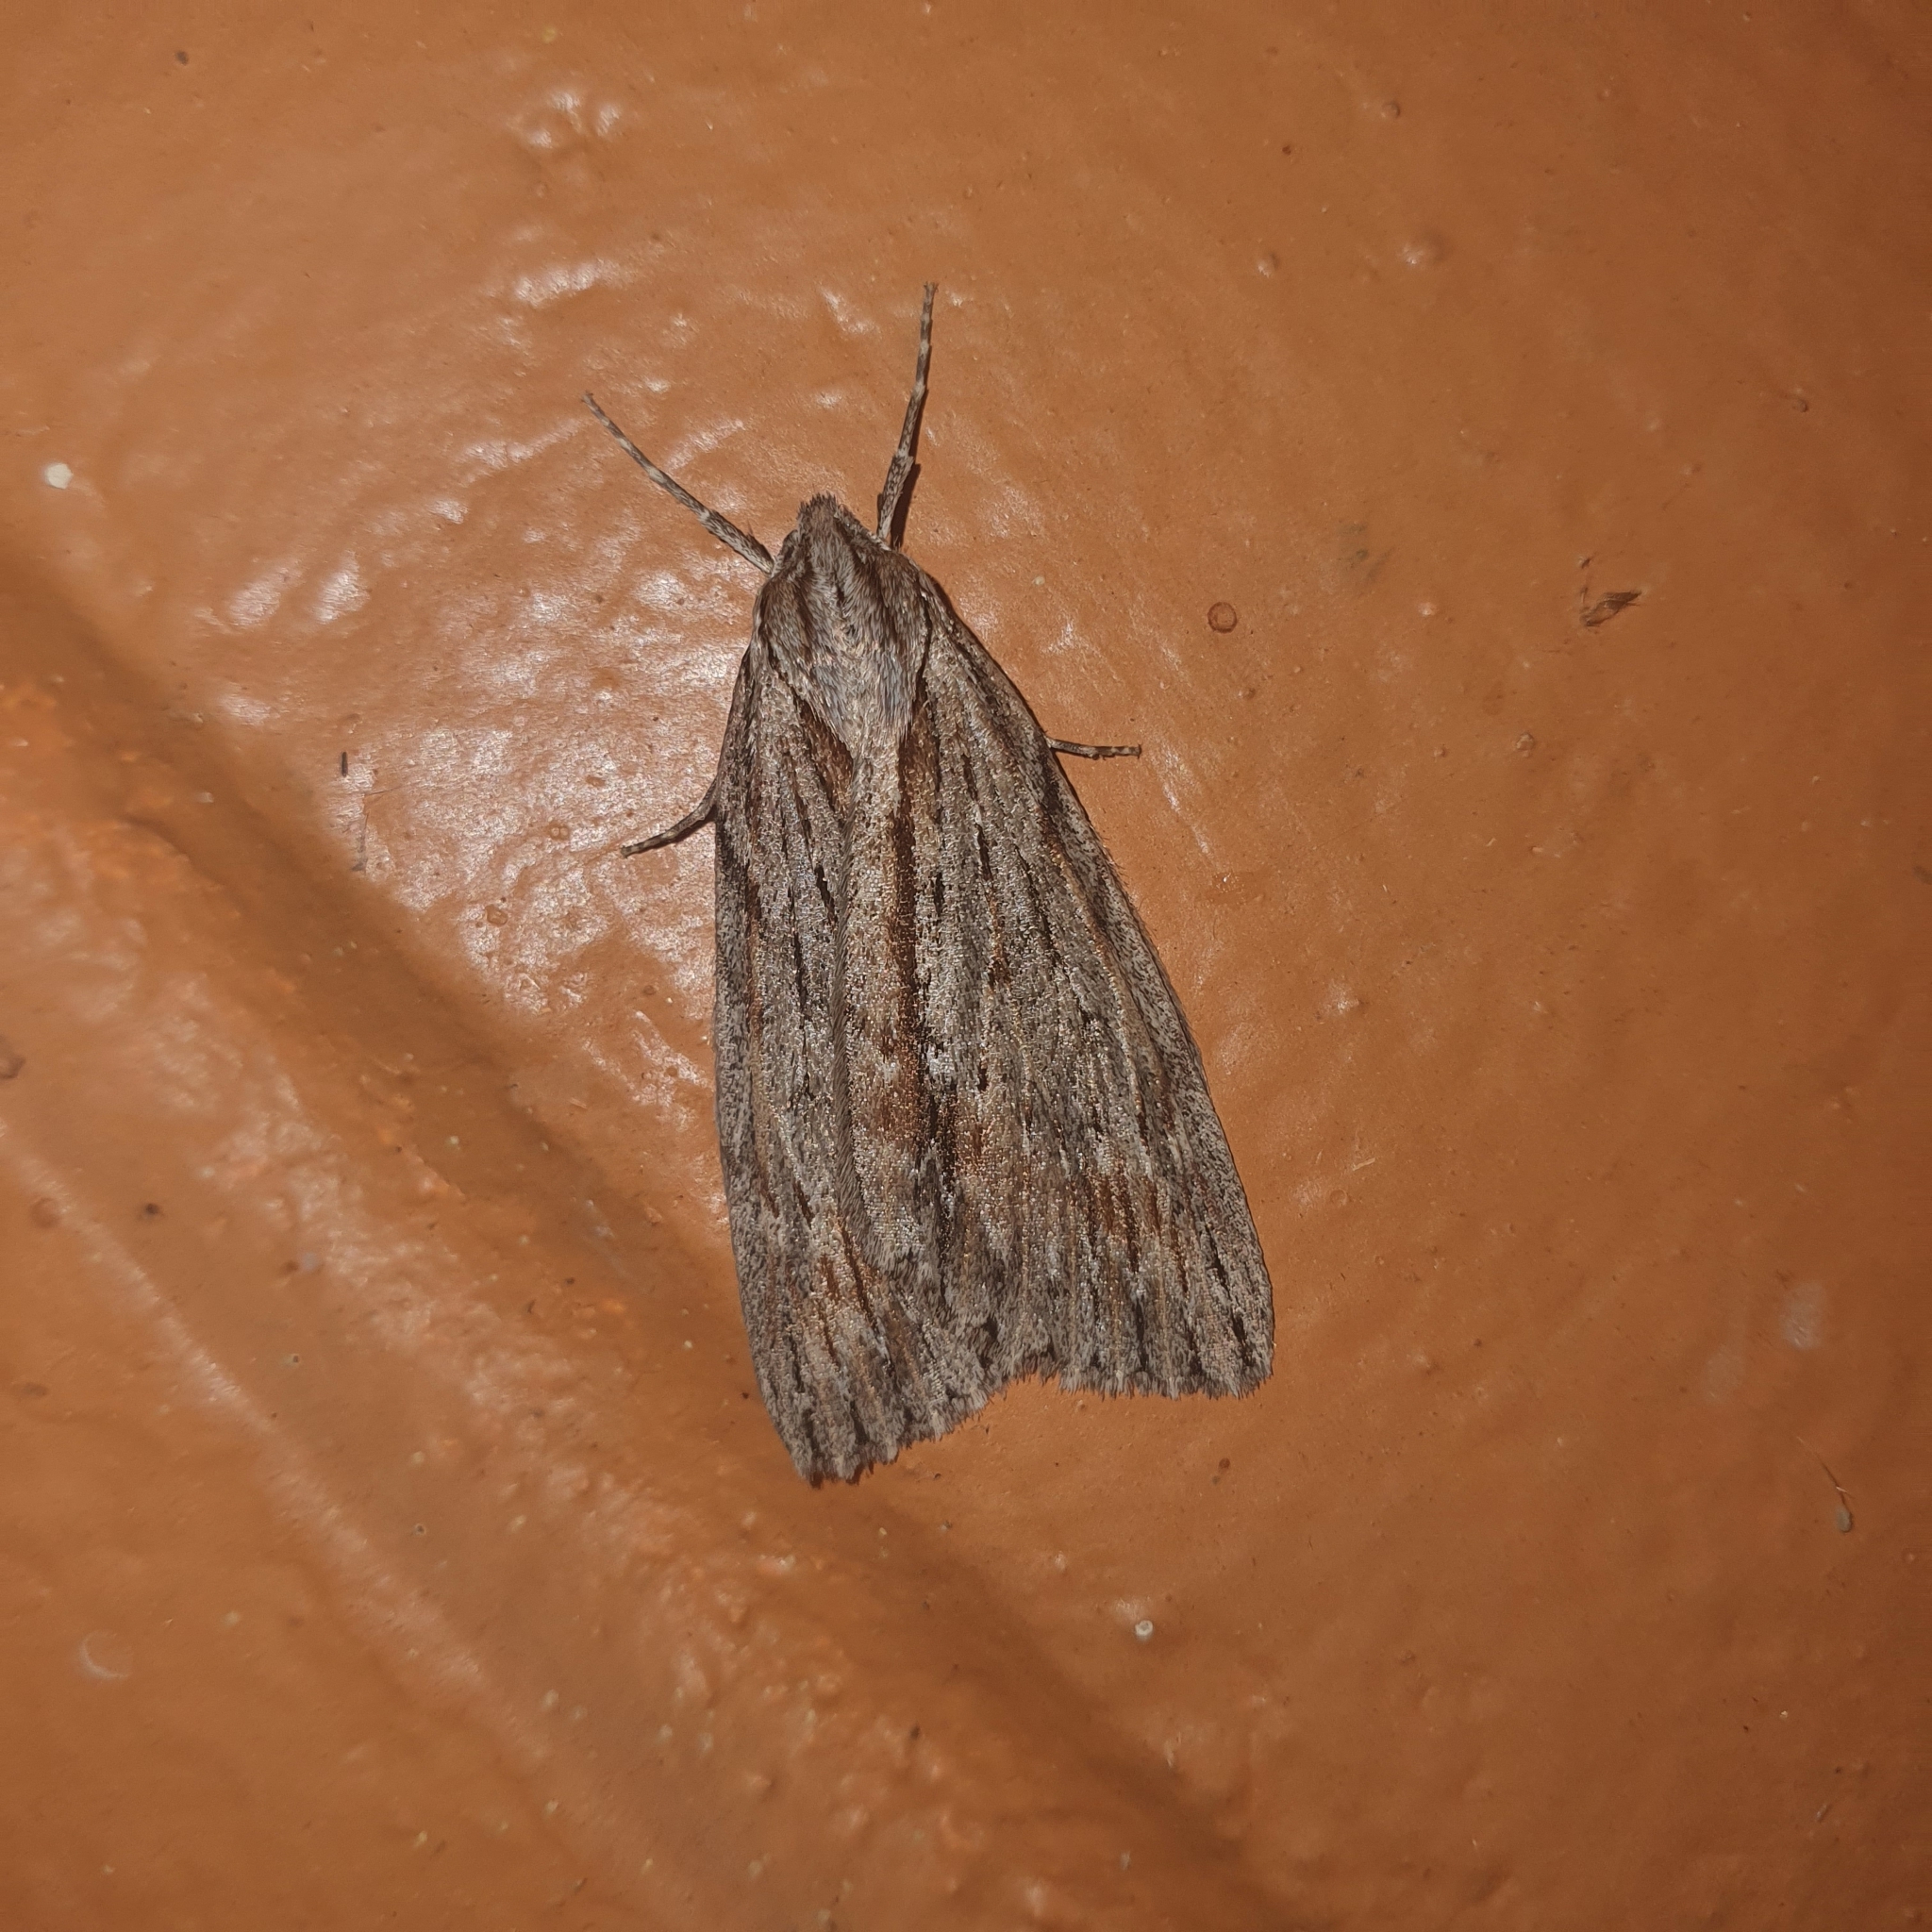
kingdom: Animalia
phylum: Arthropoda
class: Insecta
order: Lepidoptera
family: Geometridae
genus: Chlenias
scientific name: Chlenias banksiaria
